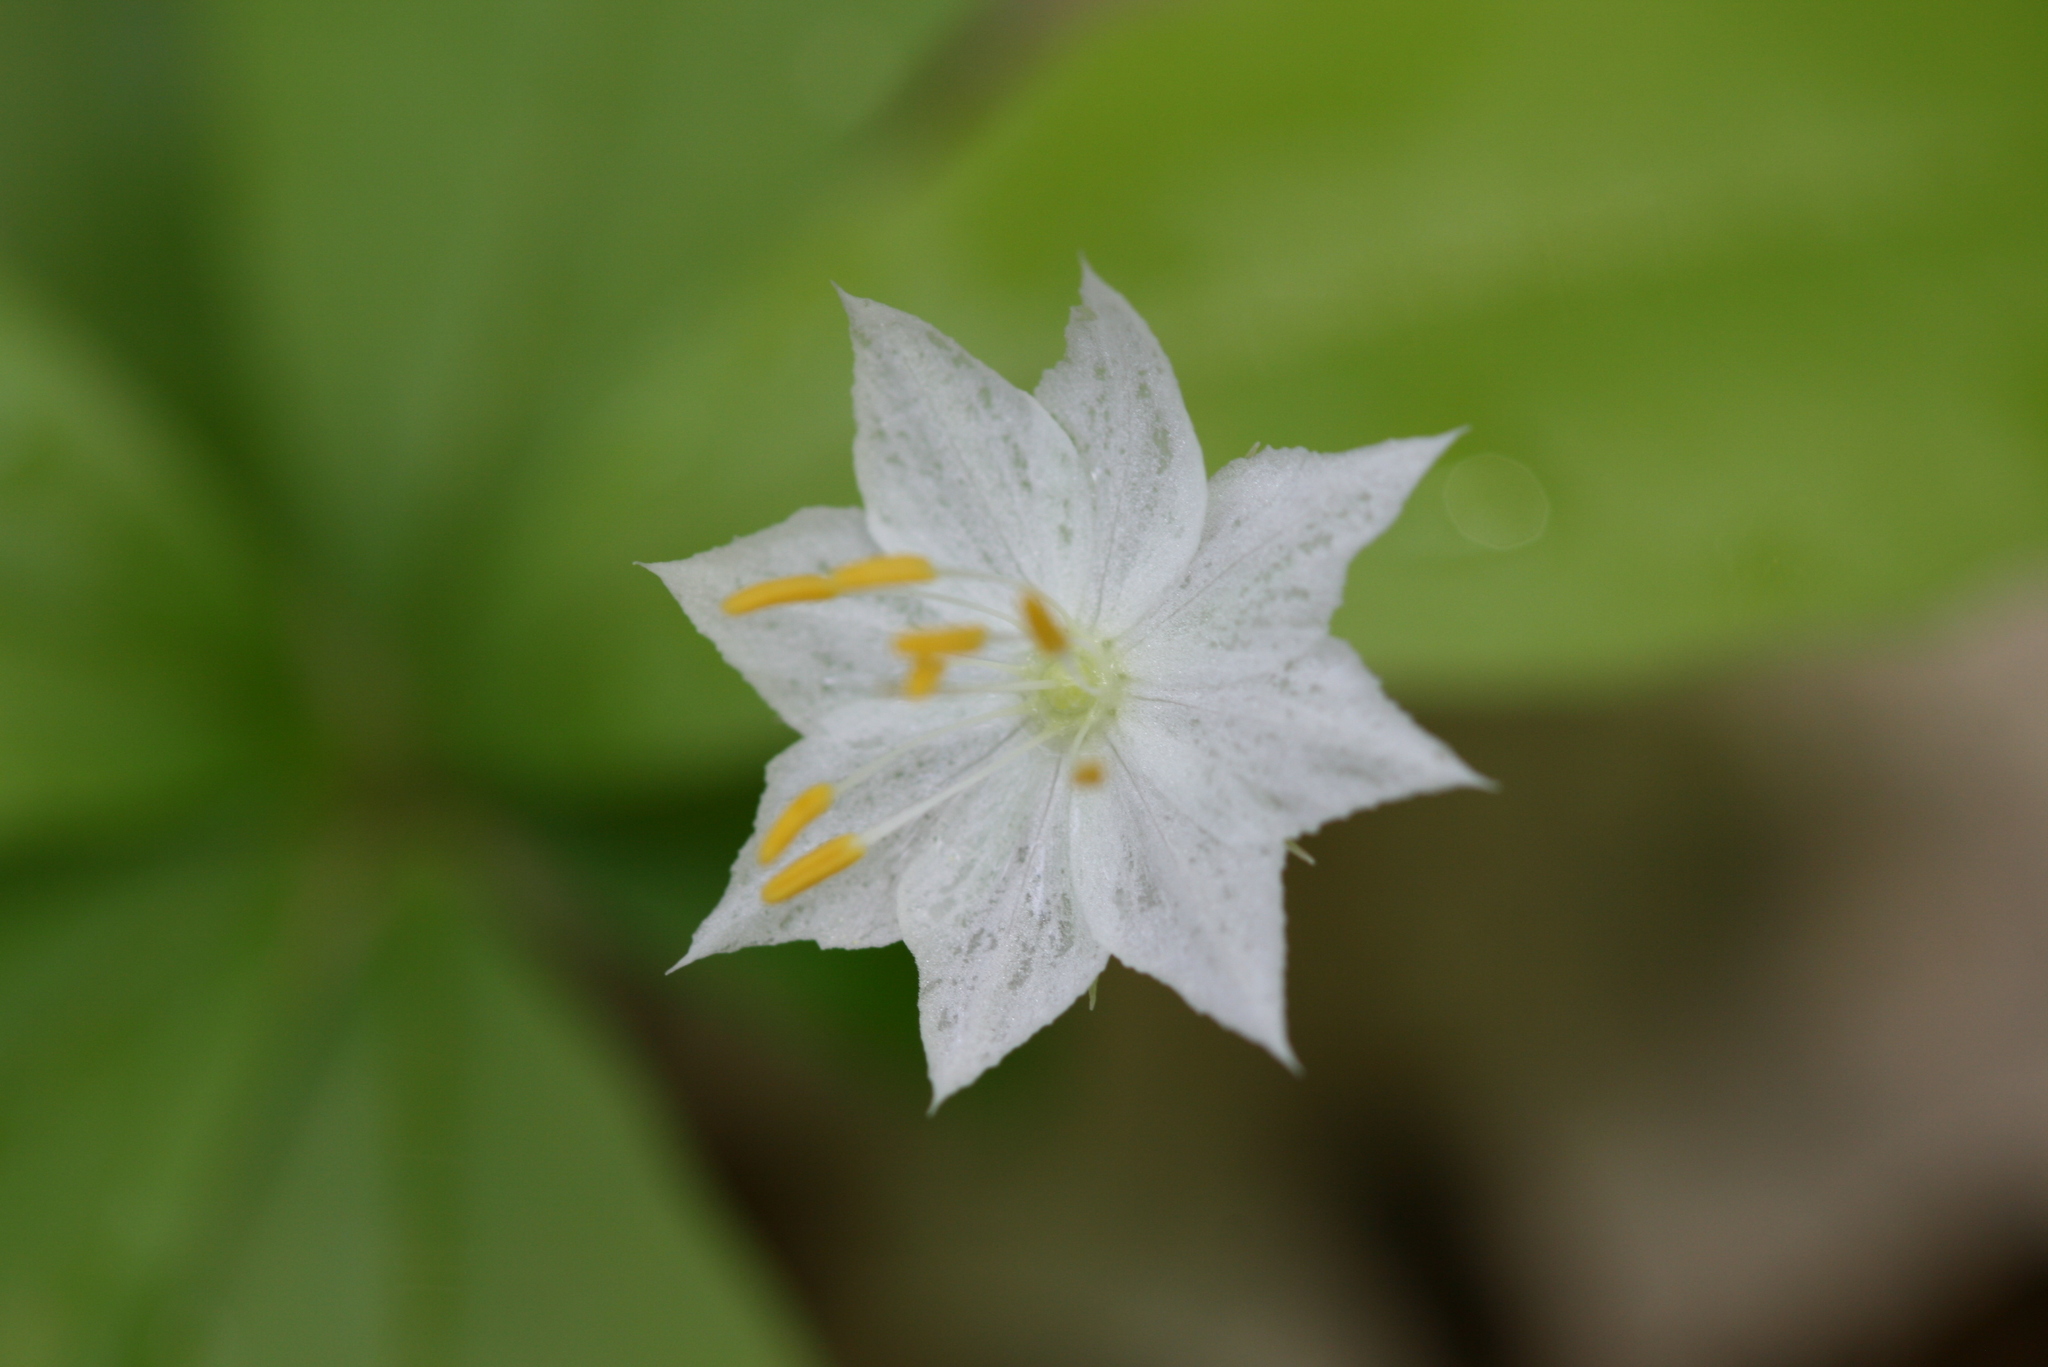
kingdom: Plantae
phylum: Tracheophyta
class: Magnoliopsida
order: Ericales
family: Primulaceae
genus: Lysimachia
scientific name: Lysimachia borealis
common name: American starflower
